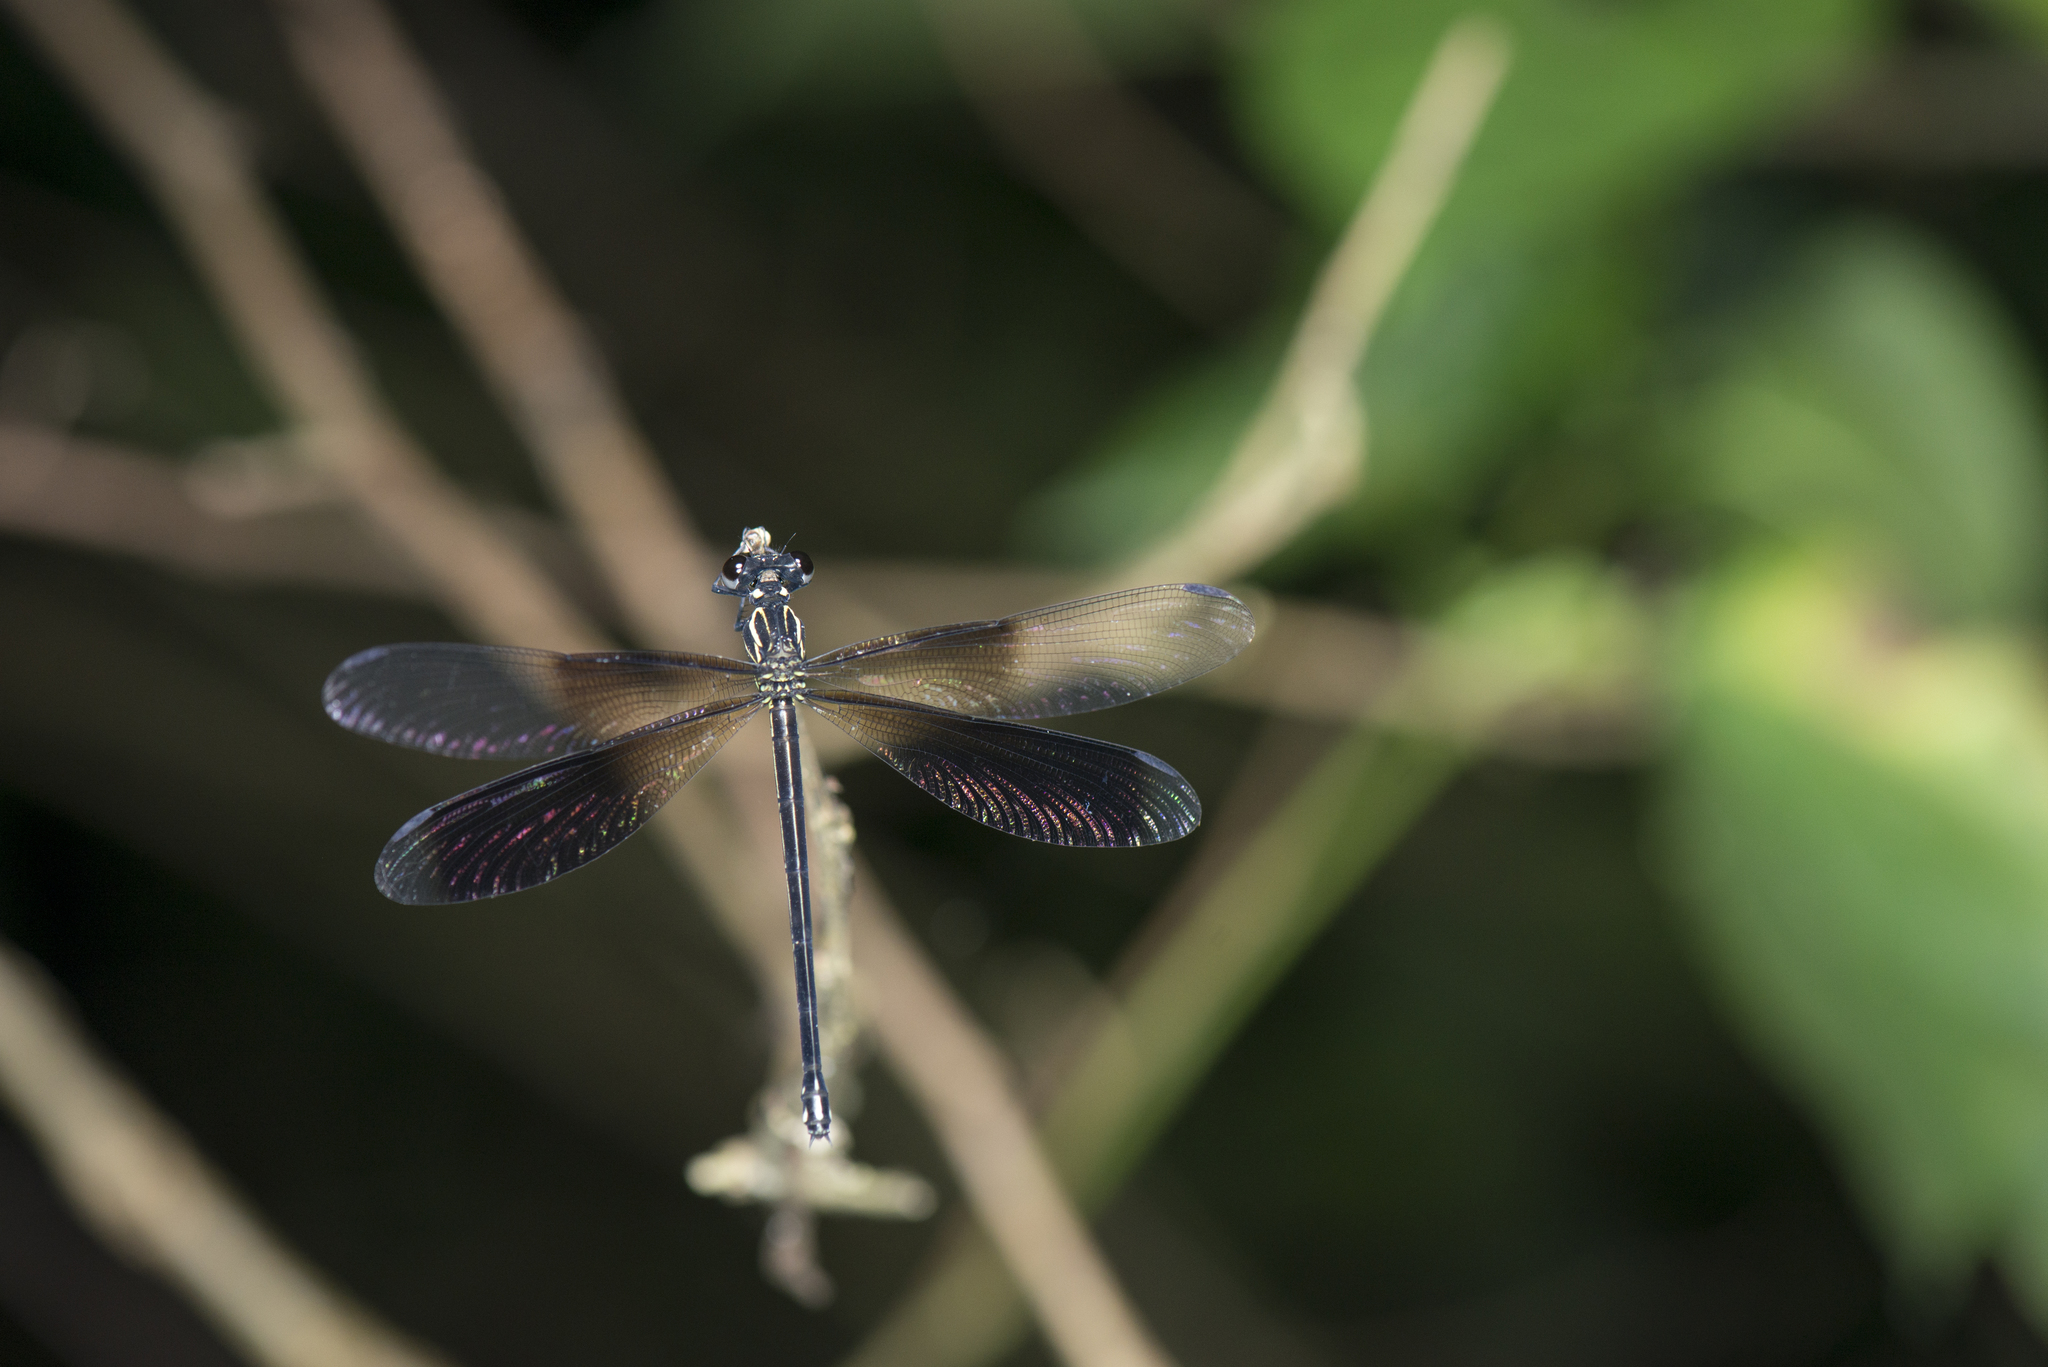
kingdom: Animalia
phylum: Arthropoda
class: Insecta
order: Odonata
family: Euphaeidae
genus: Euphaea
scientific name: Euphaea formosa
